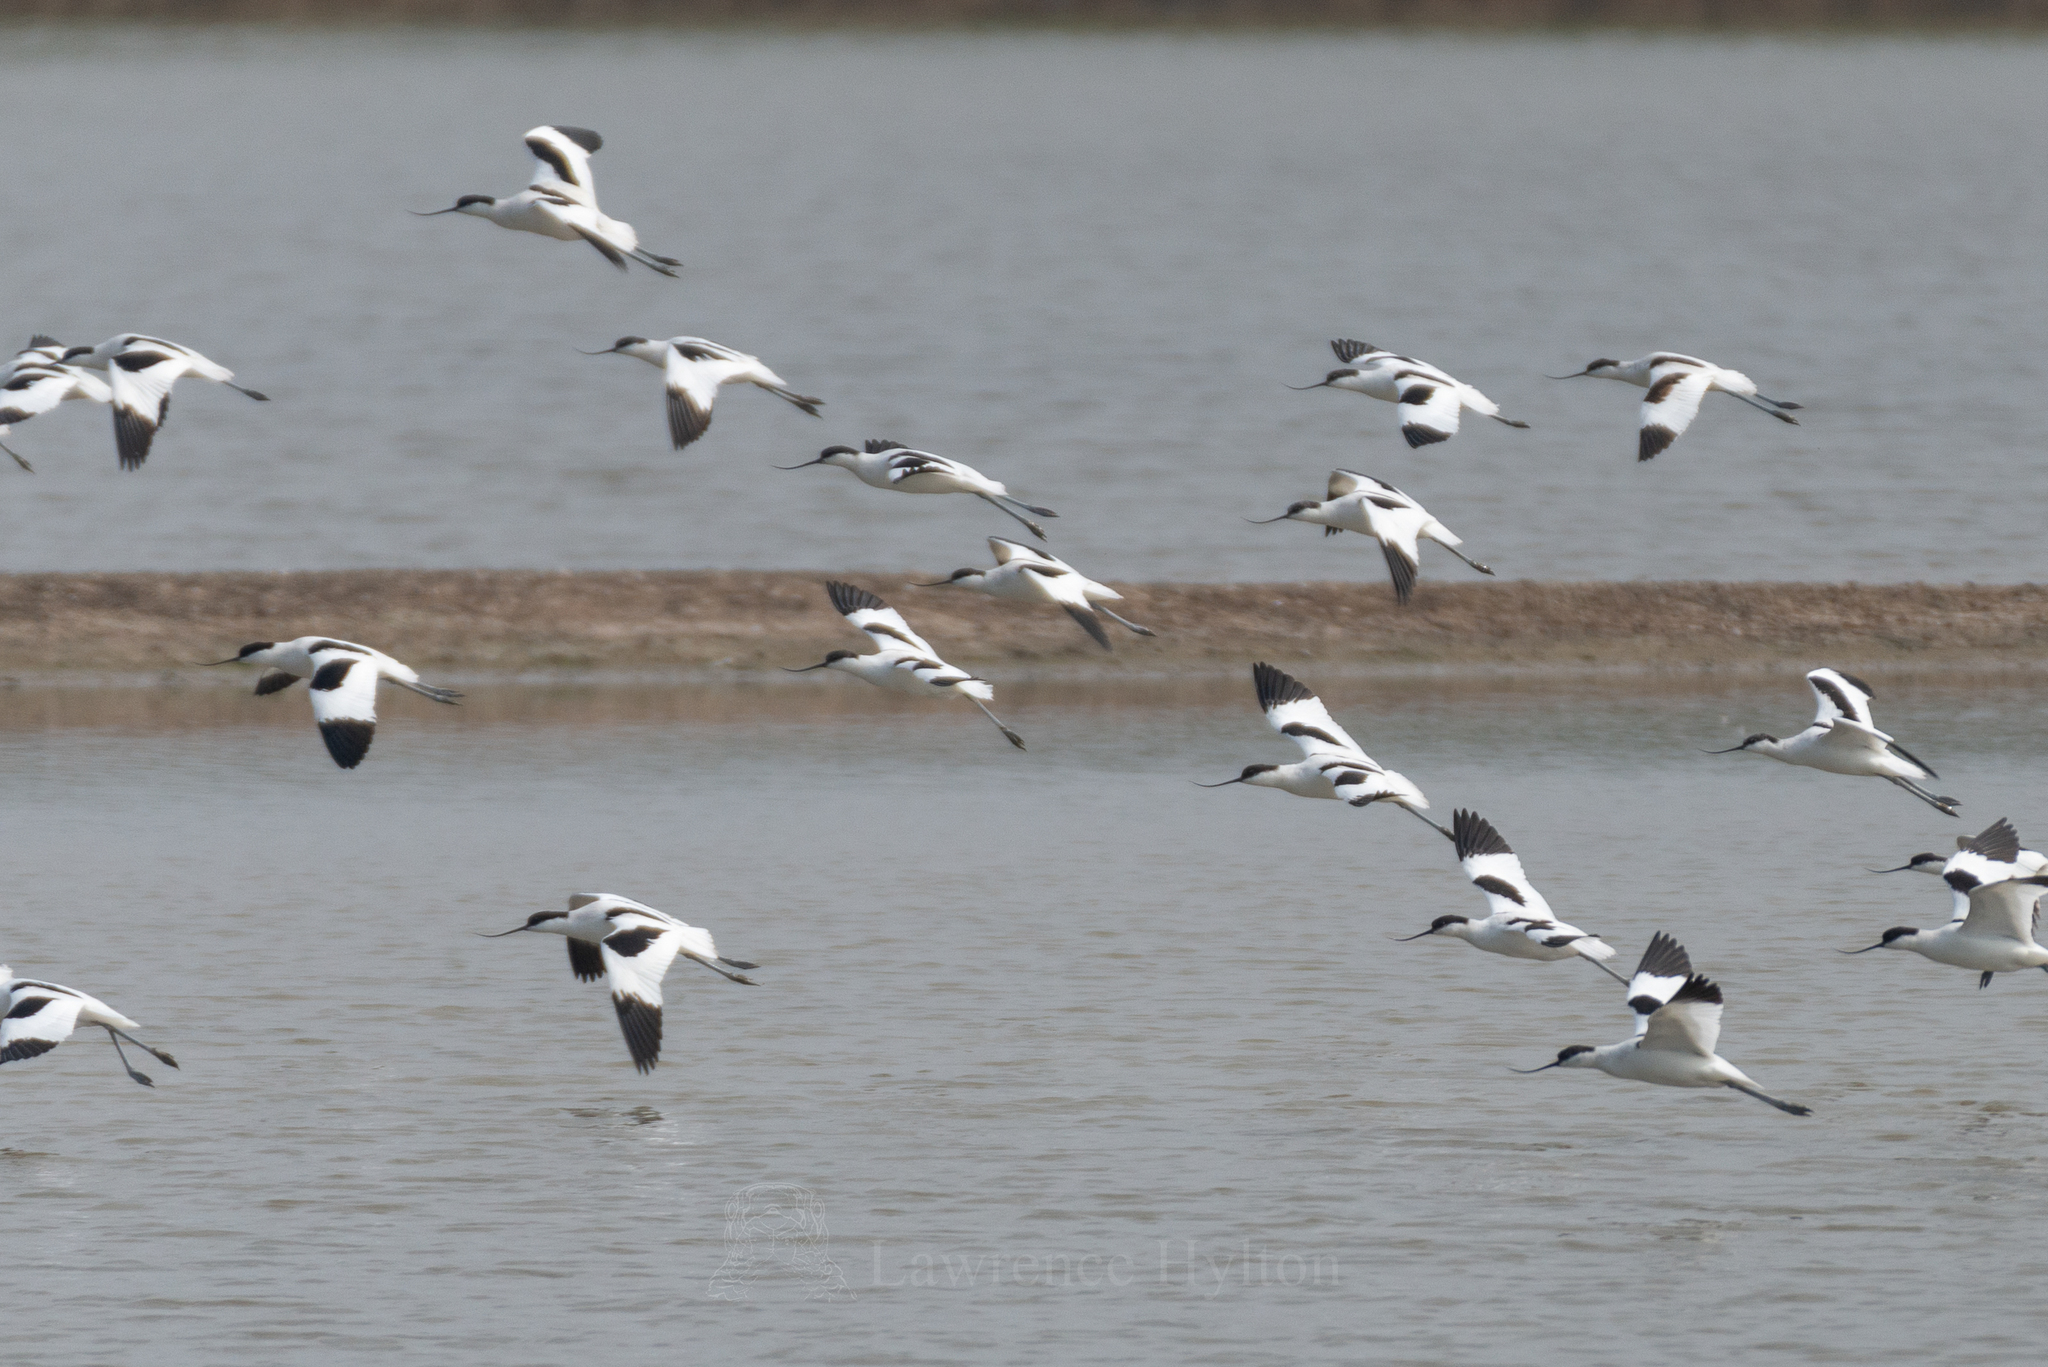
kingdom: Animalia
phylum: Chordata
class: Aves
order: Charadriiformes
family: Recurvirostridae
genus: Recurvirostra
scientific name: Recurvirostra avosetta
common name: Pied avocet
